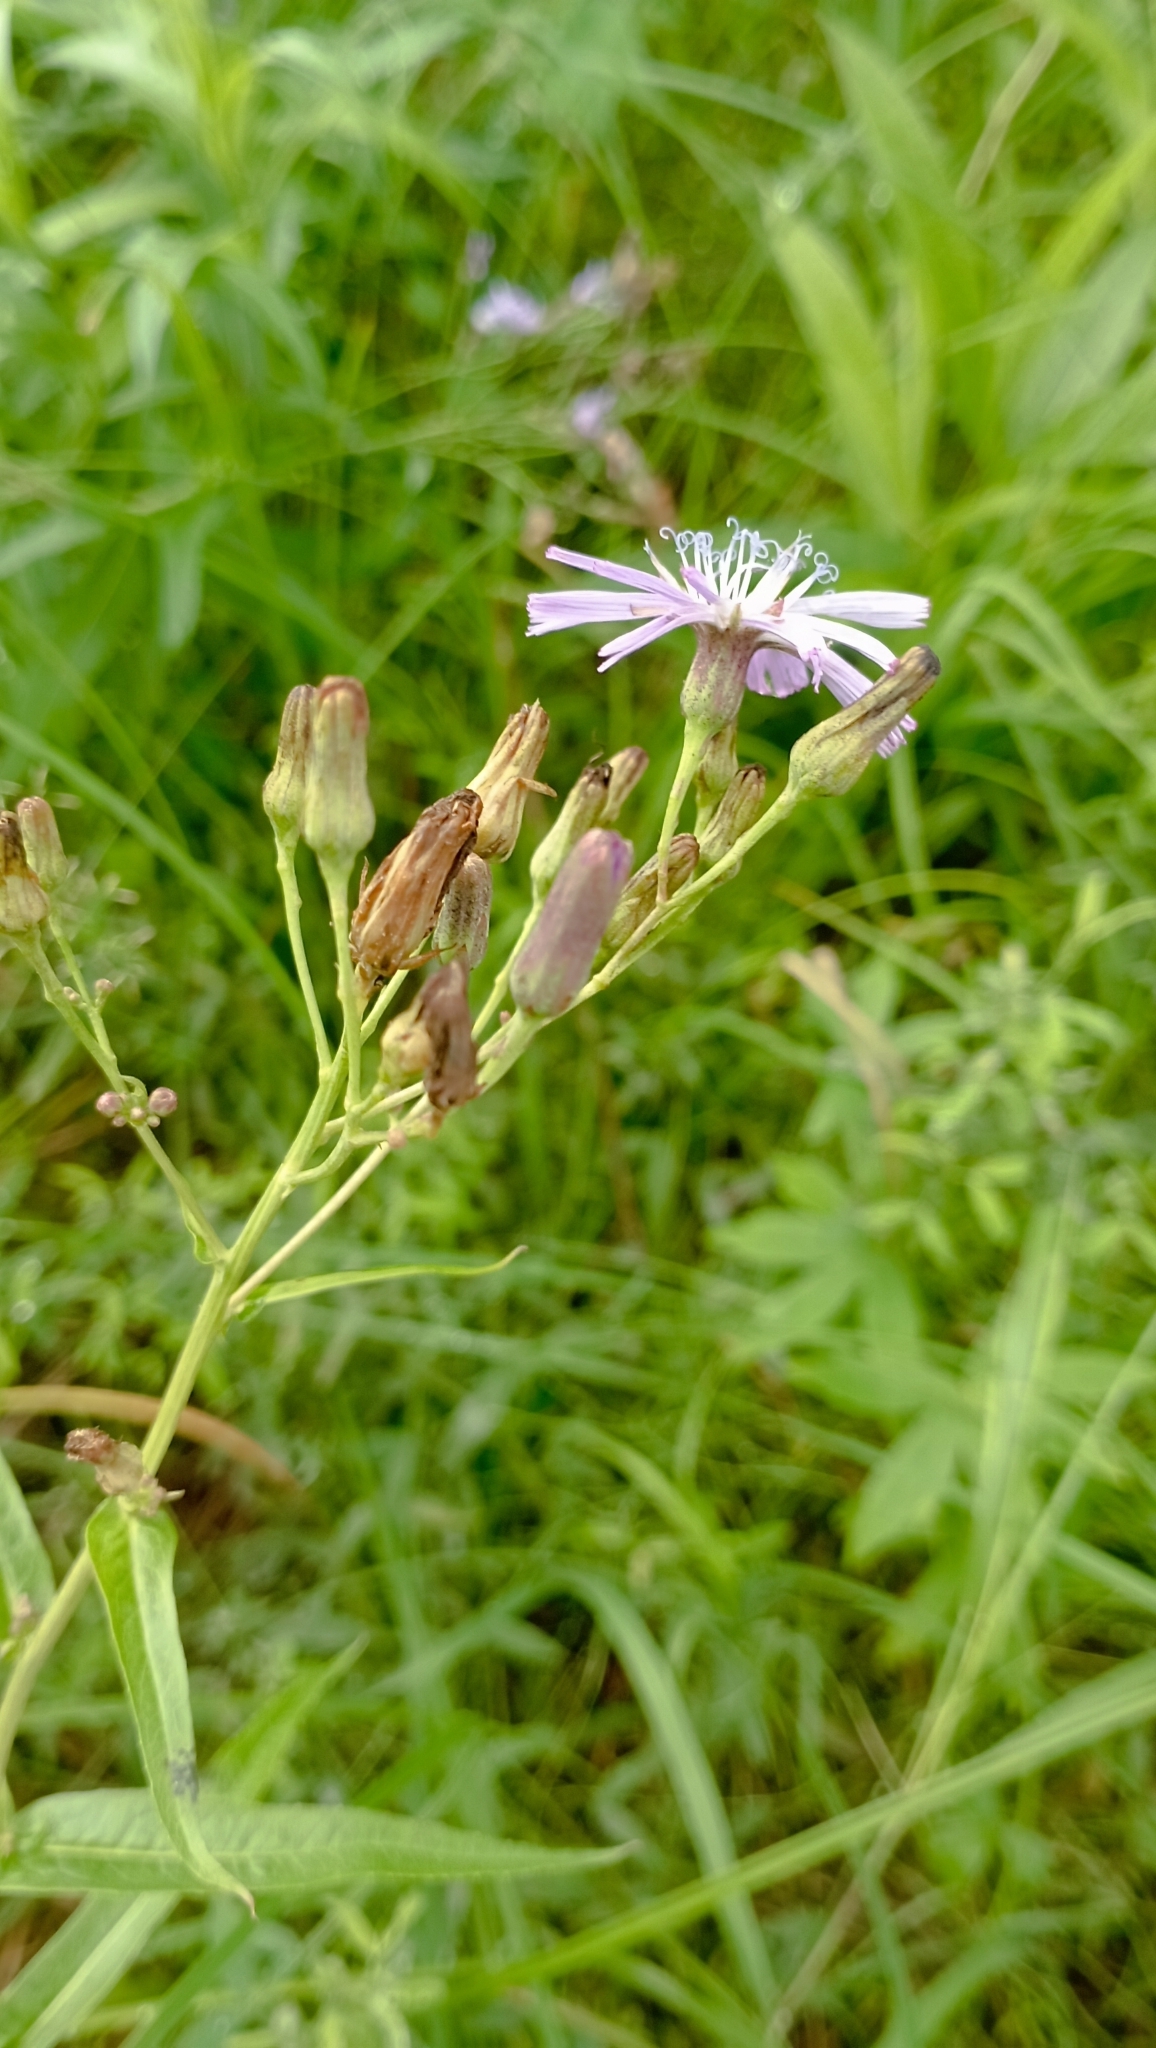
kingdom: Plantae
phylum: Tracheophyta
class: Magnoliopsida
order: Asterales
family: Asteraceae
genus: Lactuca
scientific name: Lactuca sibirica
